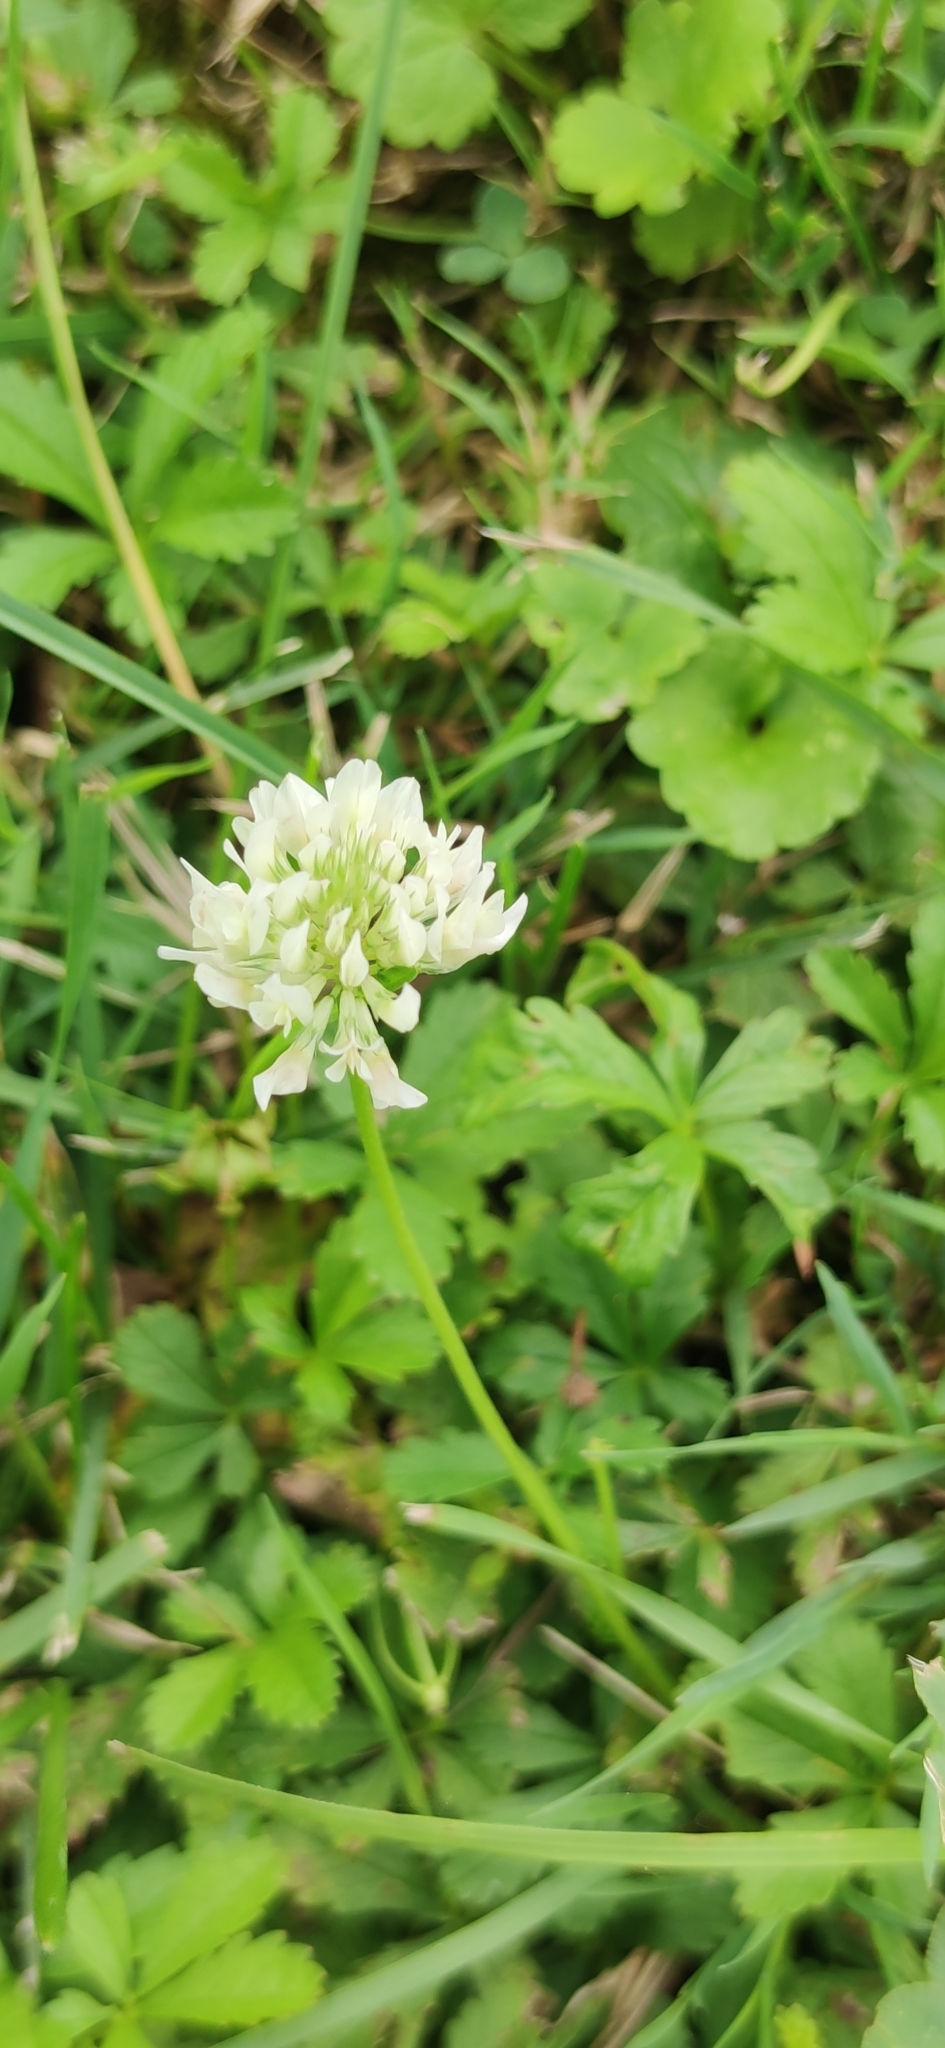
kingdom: Plantae
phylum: Tracheophyta
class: Magnoliopsida
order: Fabales
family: Fabaceae
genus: Trifolium
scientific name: Trifolium repens
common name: White clover
